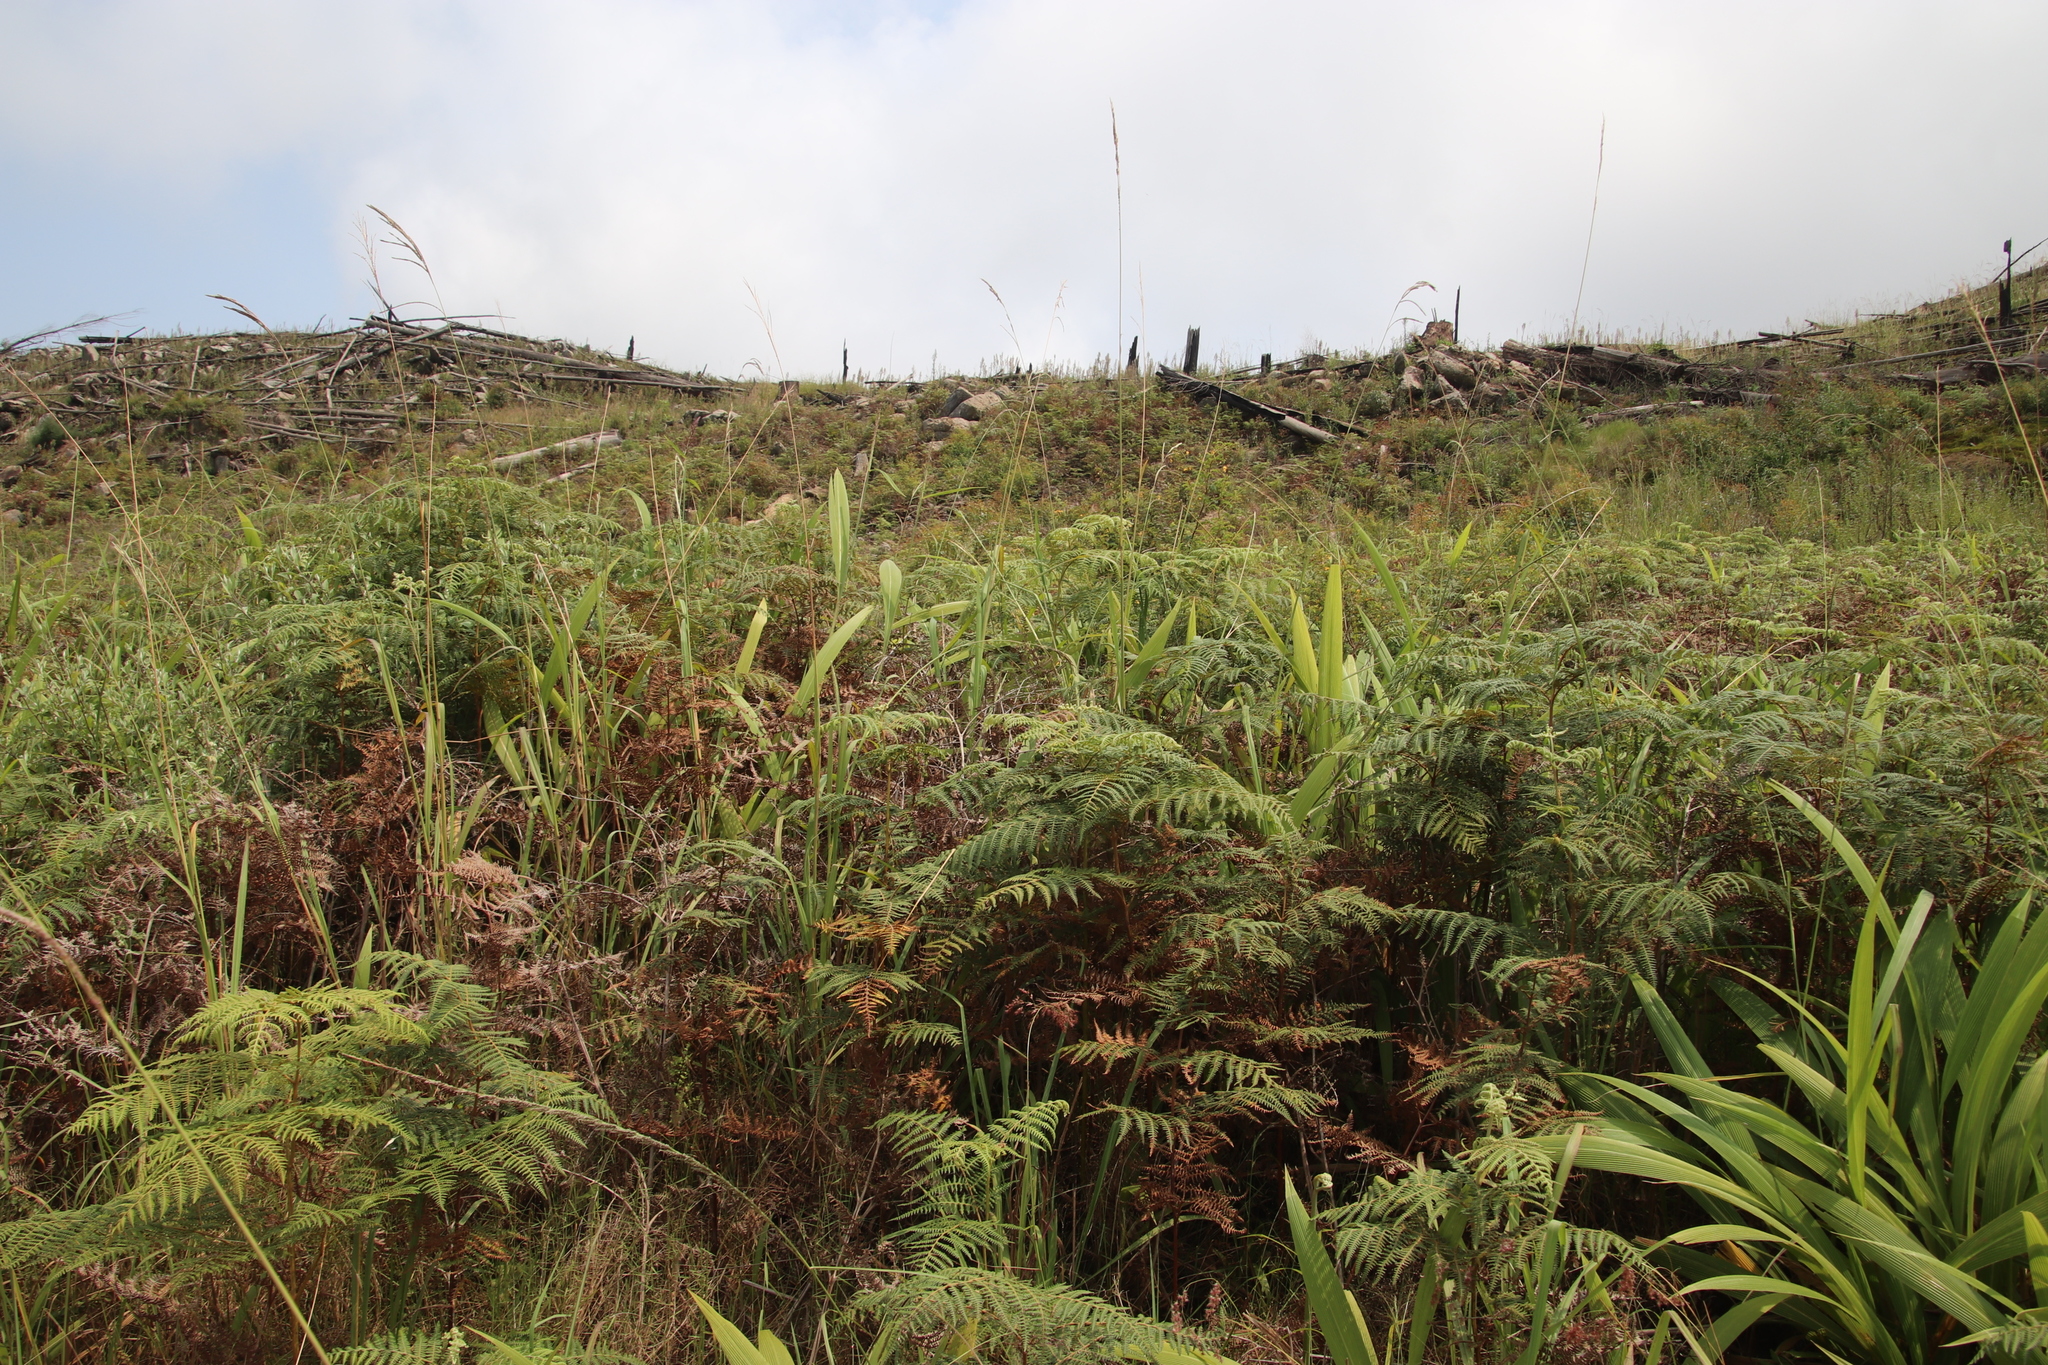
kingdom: Plantae
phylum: Tracheophyta
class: Polypodiopsida
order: Polypodiales
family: Dennstaedtiaceae
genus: Pteridium
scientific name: Pteridium aquilinum
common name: Bracken
